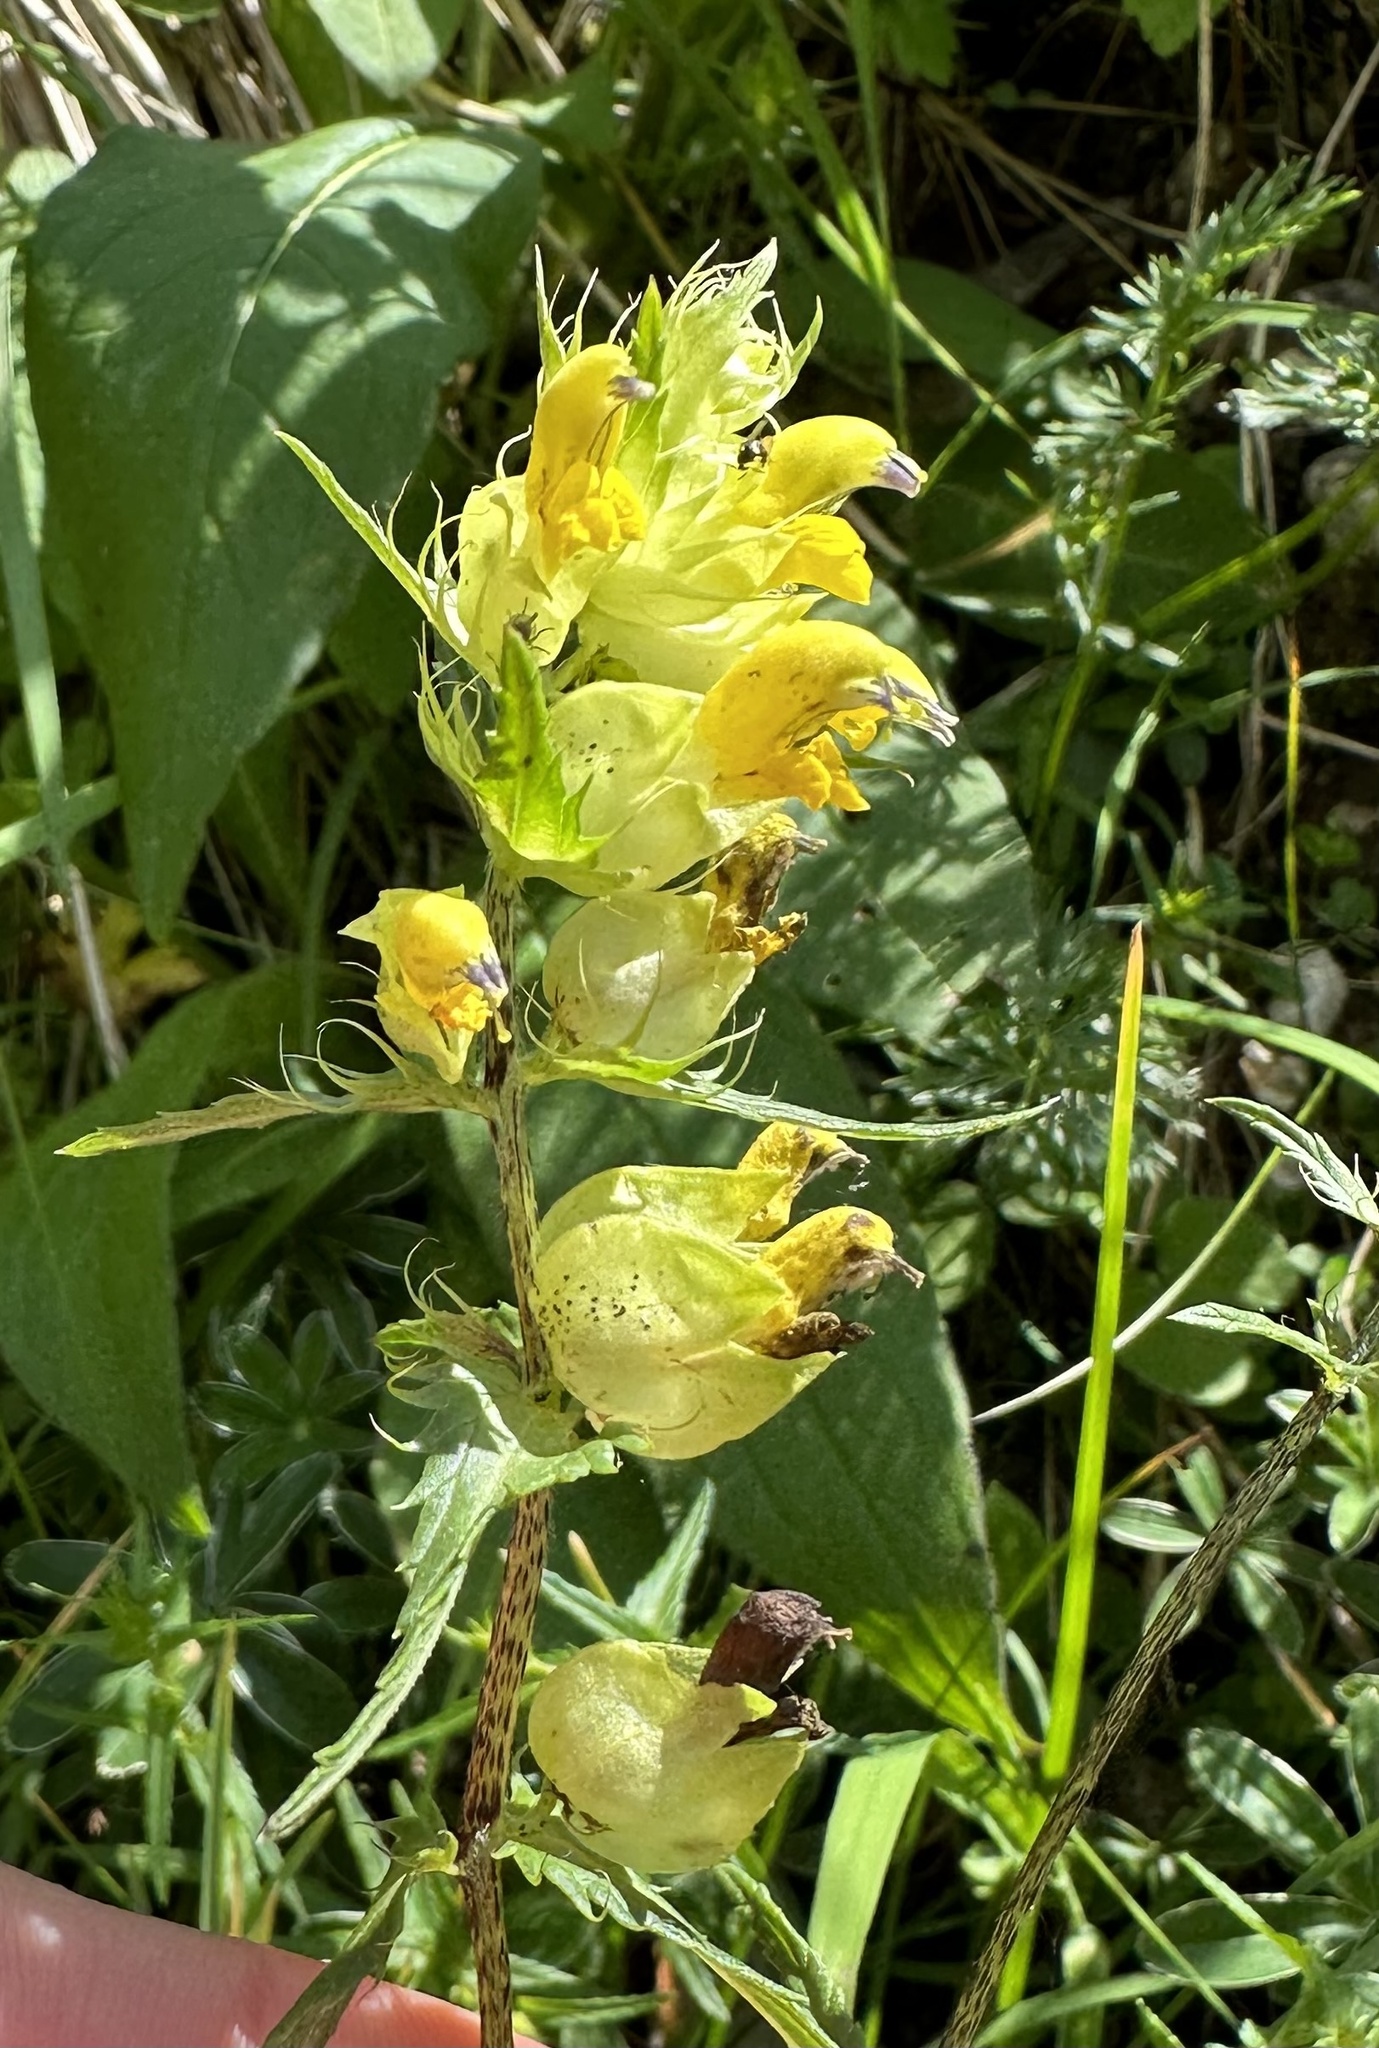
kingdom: Plantae
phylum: Tracheophyta
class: Magnoliopsida
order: Lamiales
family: Orobanchaceae
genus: Rhinanthus
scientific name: Rhinanthus glacialis
